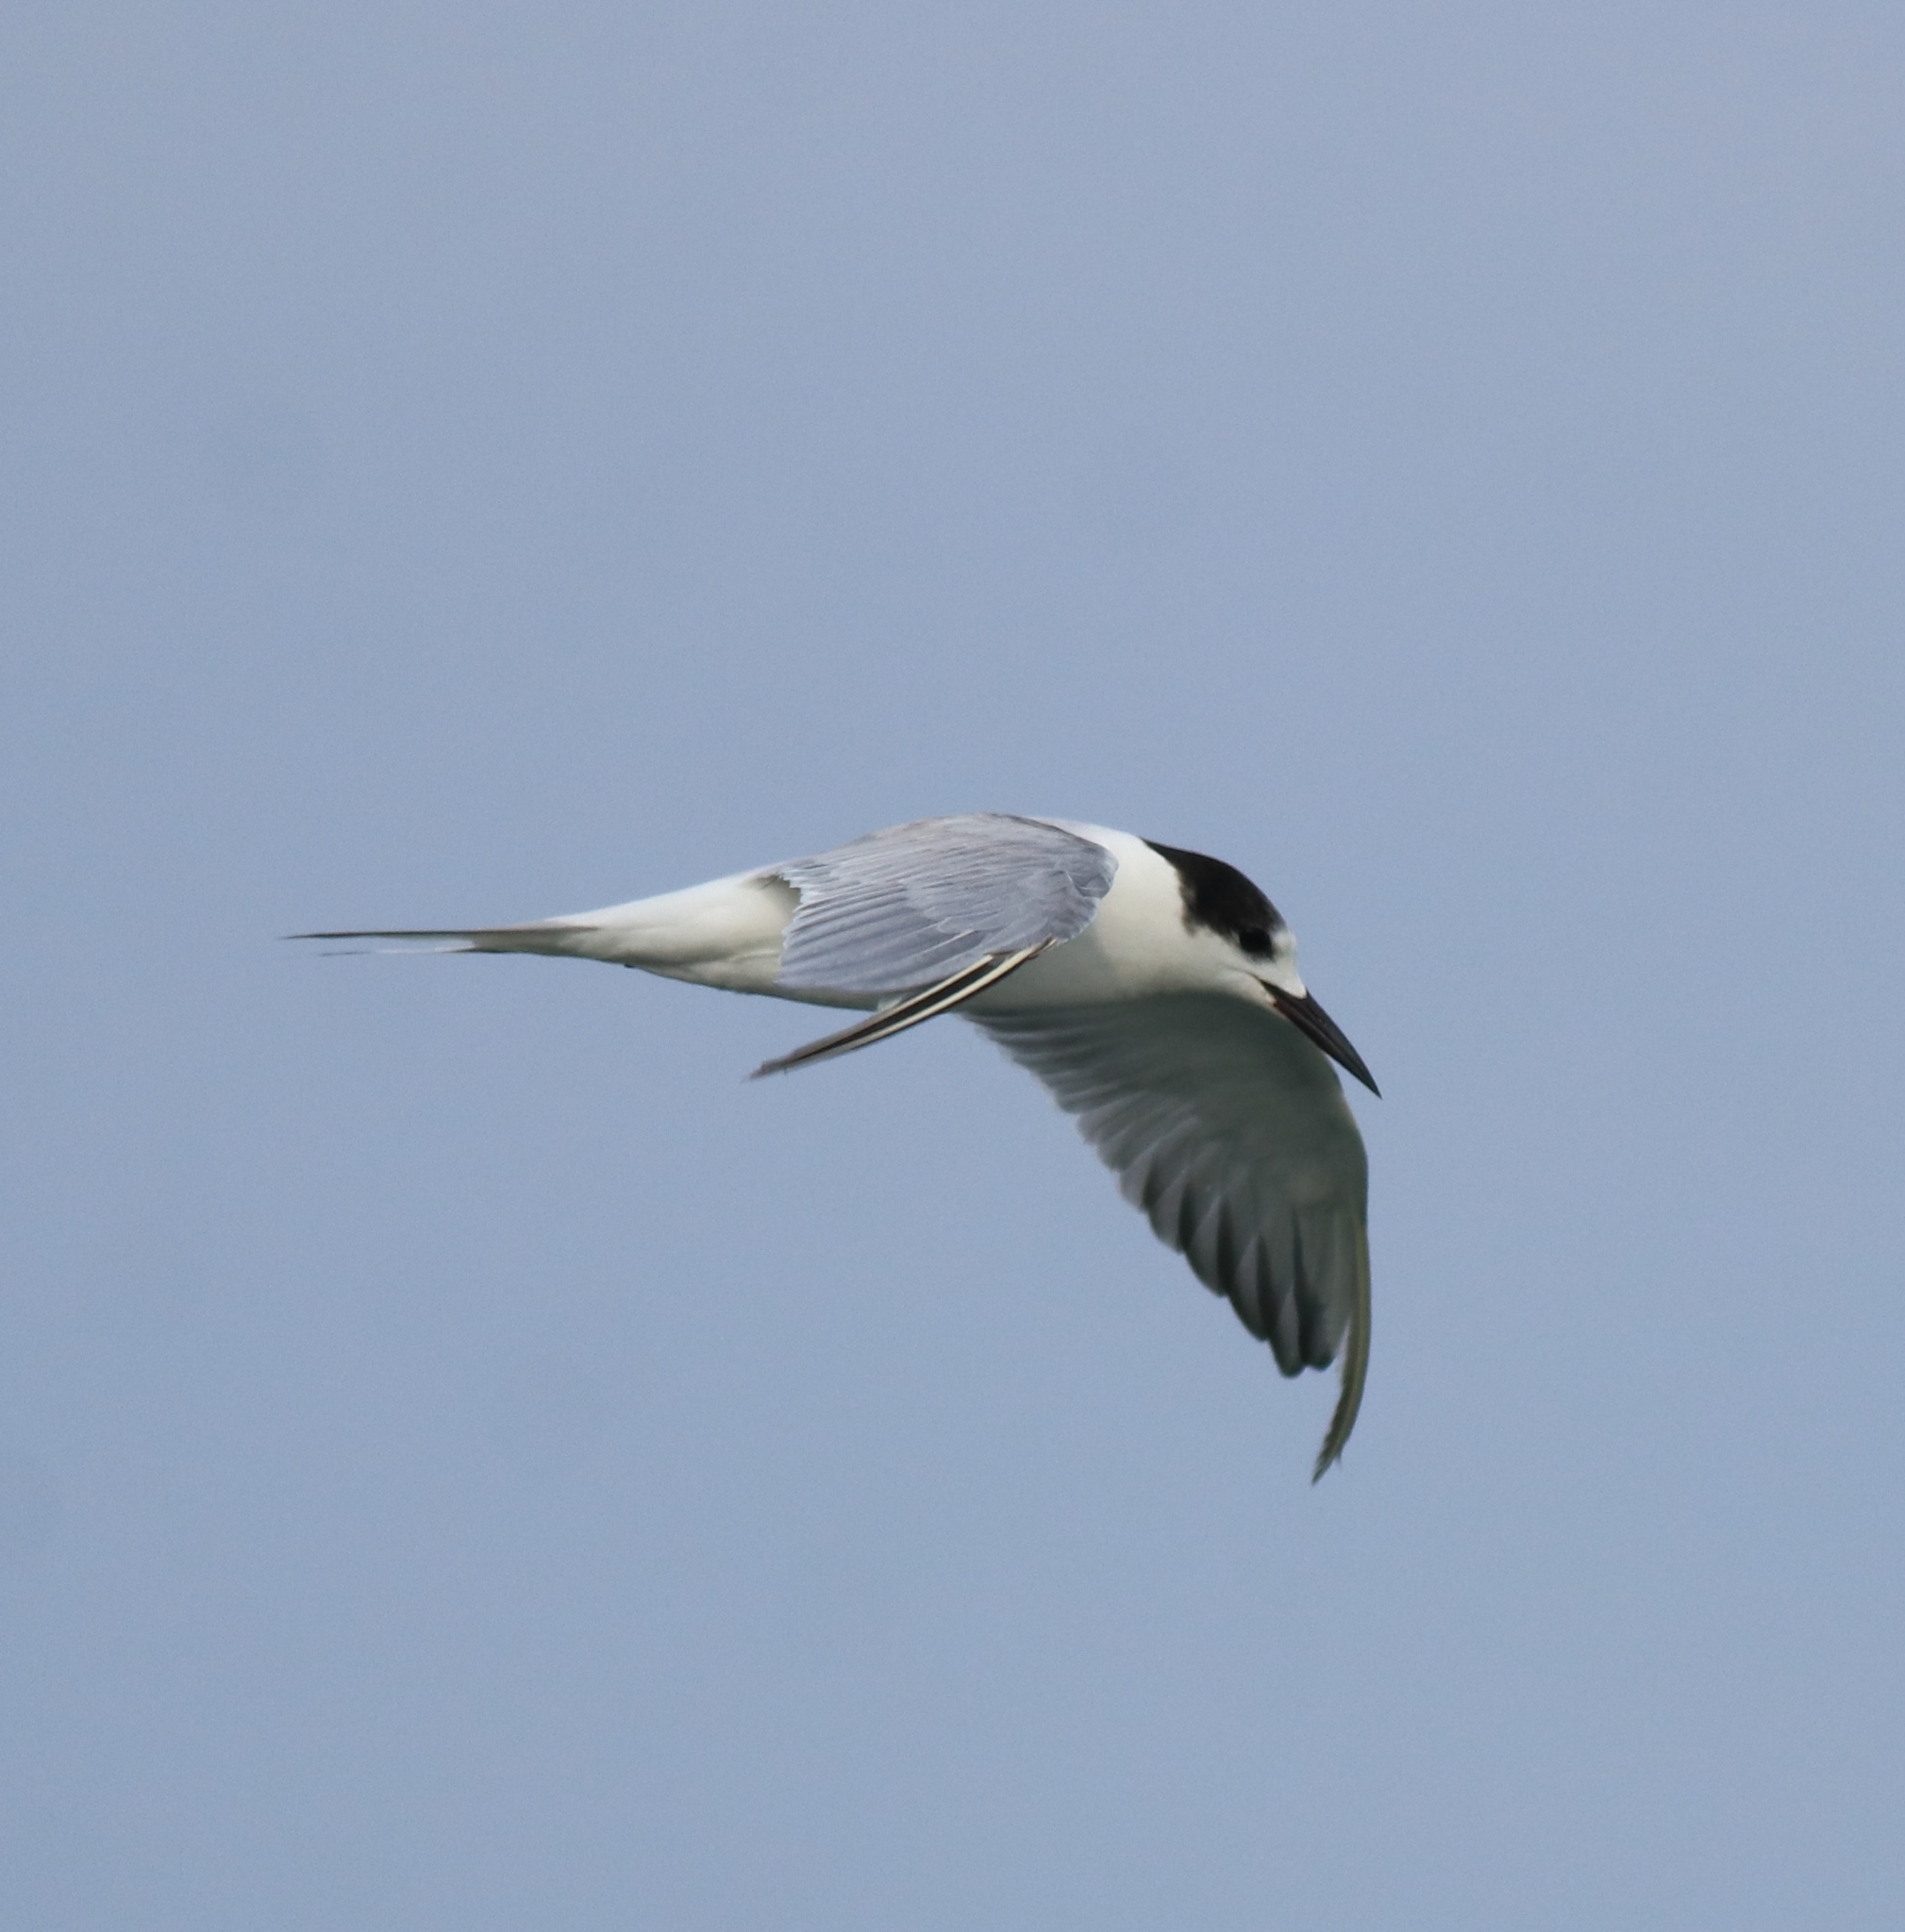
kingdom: Animalia
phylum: Chordata
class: Aves
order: Charadriiformes
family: Laridae
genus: Sternula
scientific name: Sternula albifrons
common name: Little tern
